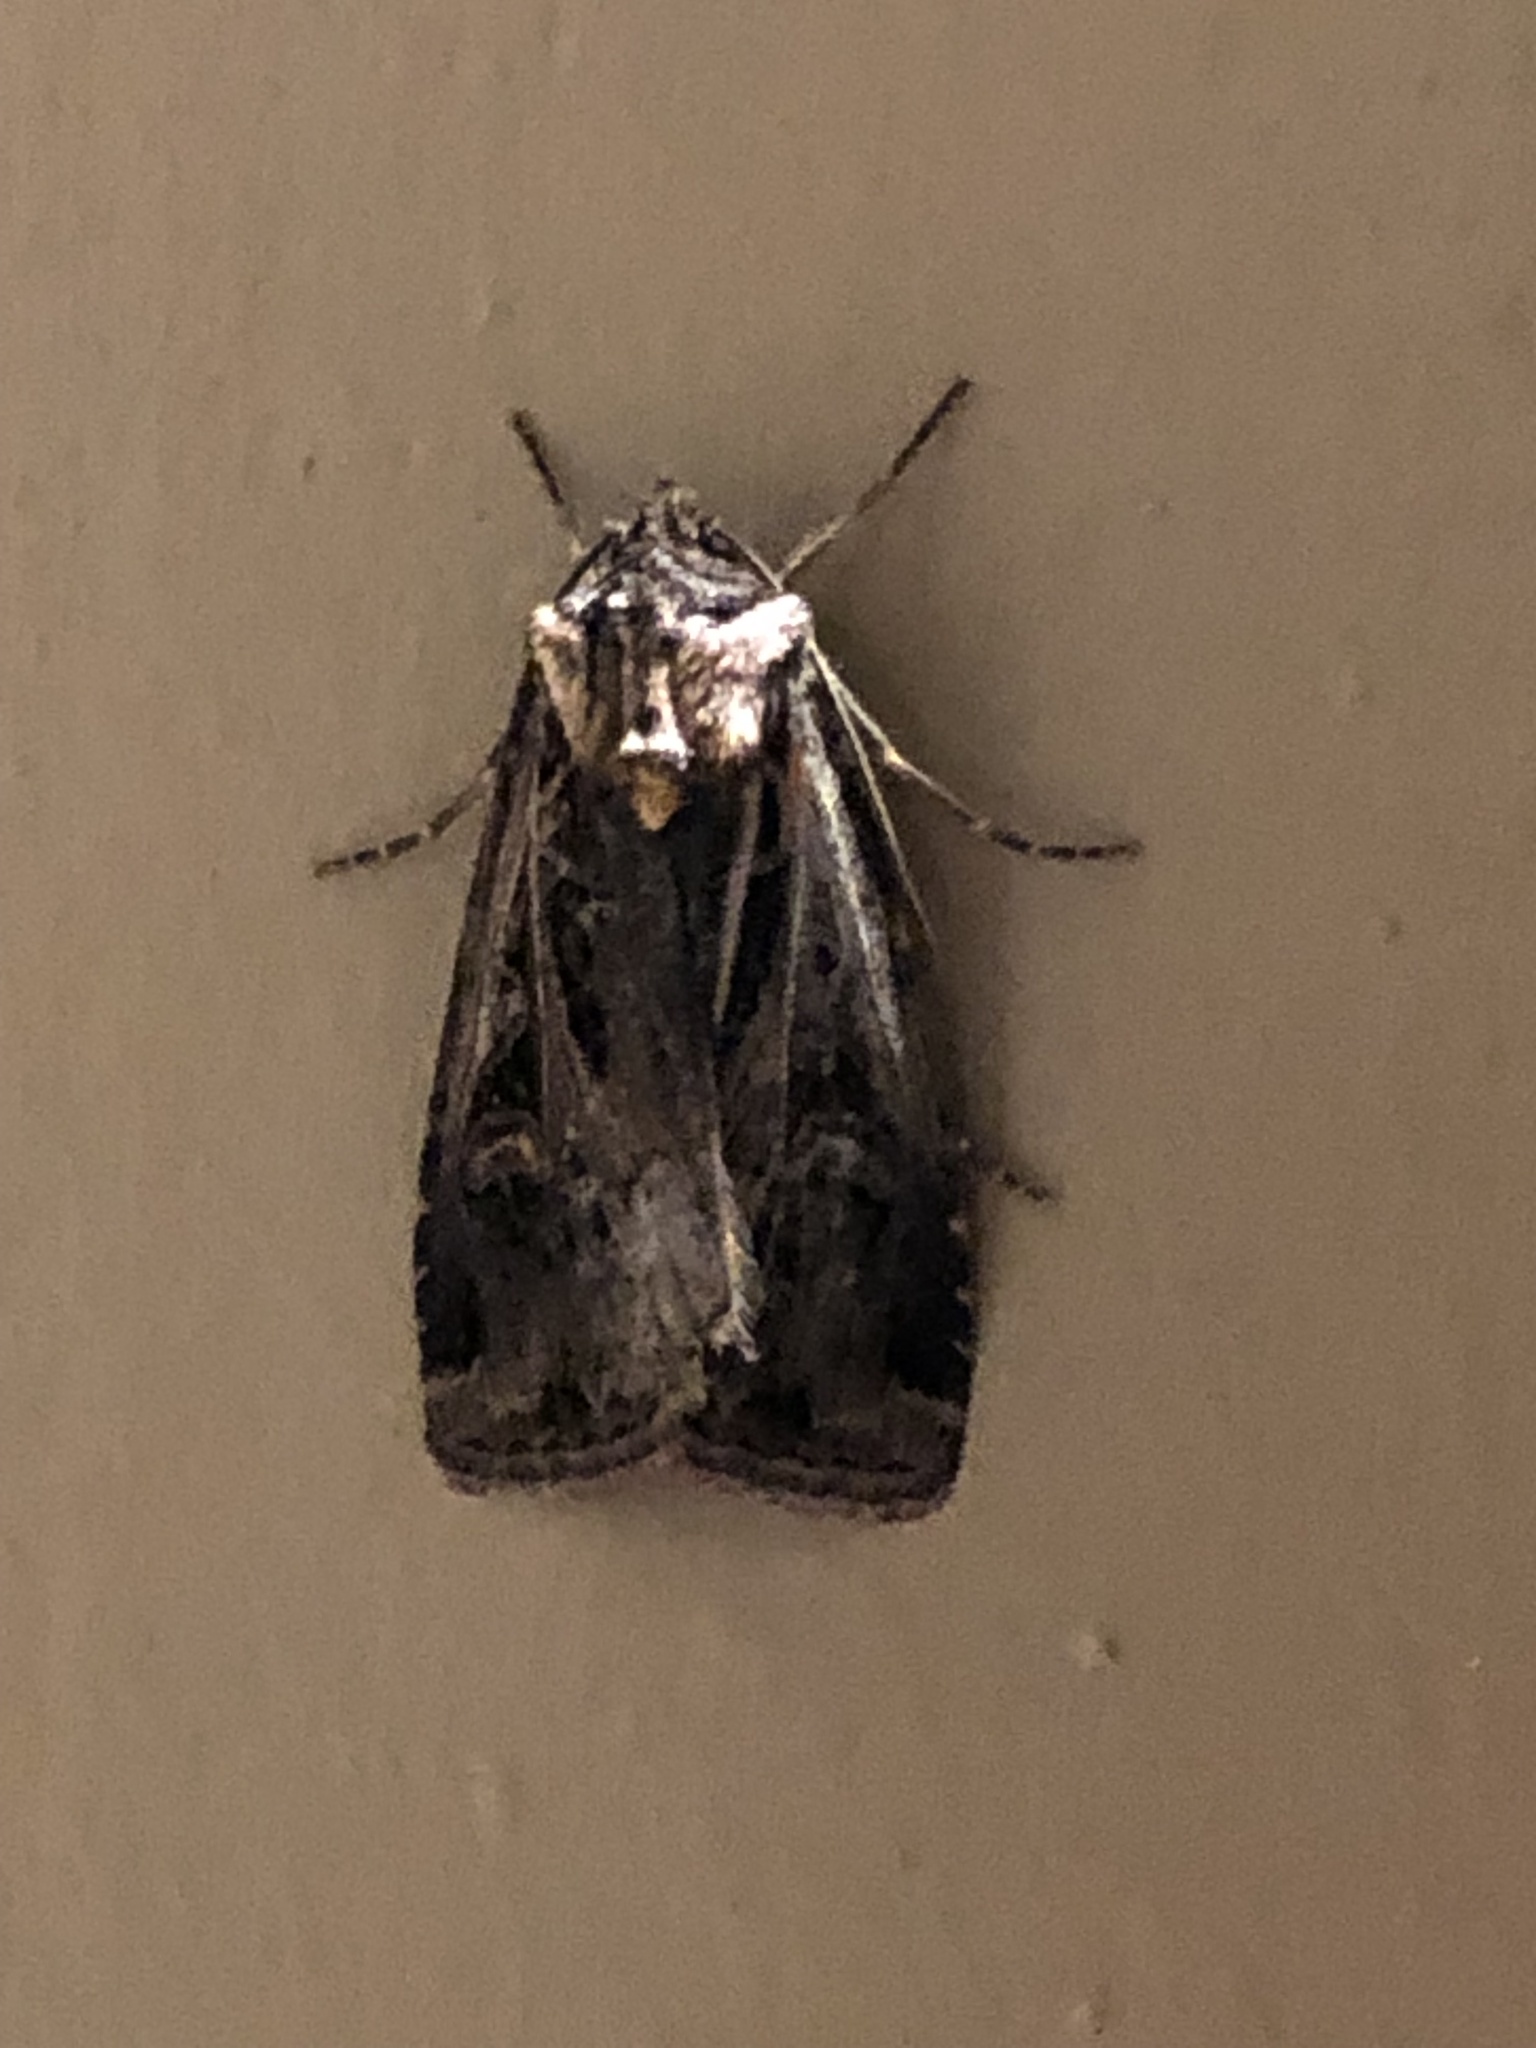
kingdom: Animalia
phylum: Arthropoda
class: Insecta
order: Lepidoptera
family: Noctuidae
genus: Feltia
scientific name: Feltia jaculifera
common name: Dingy cutworm moth
